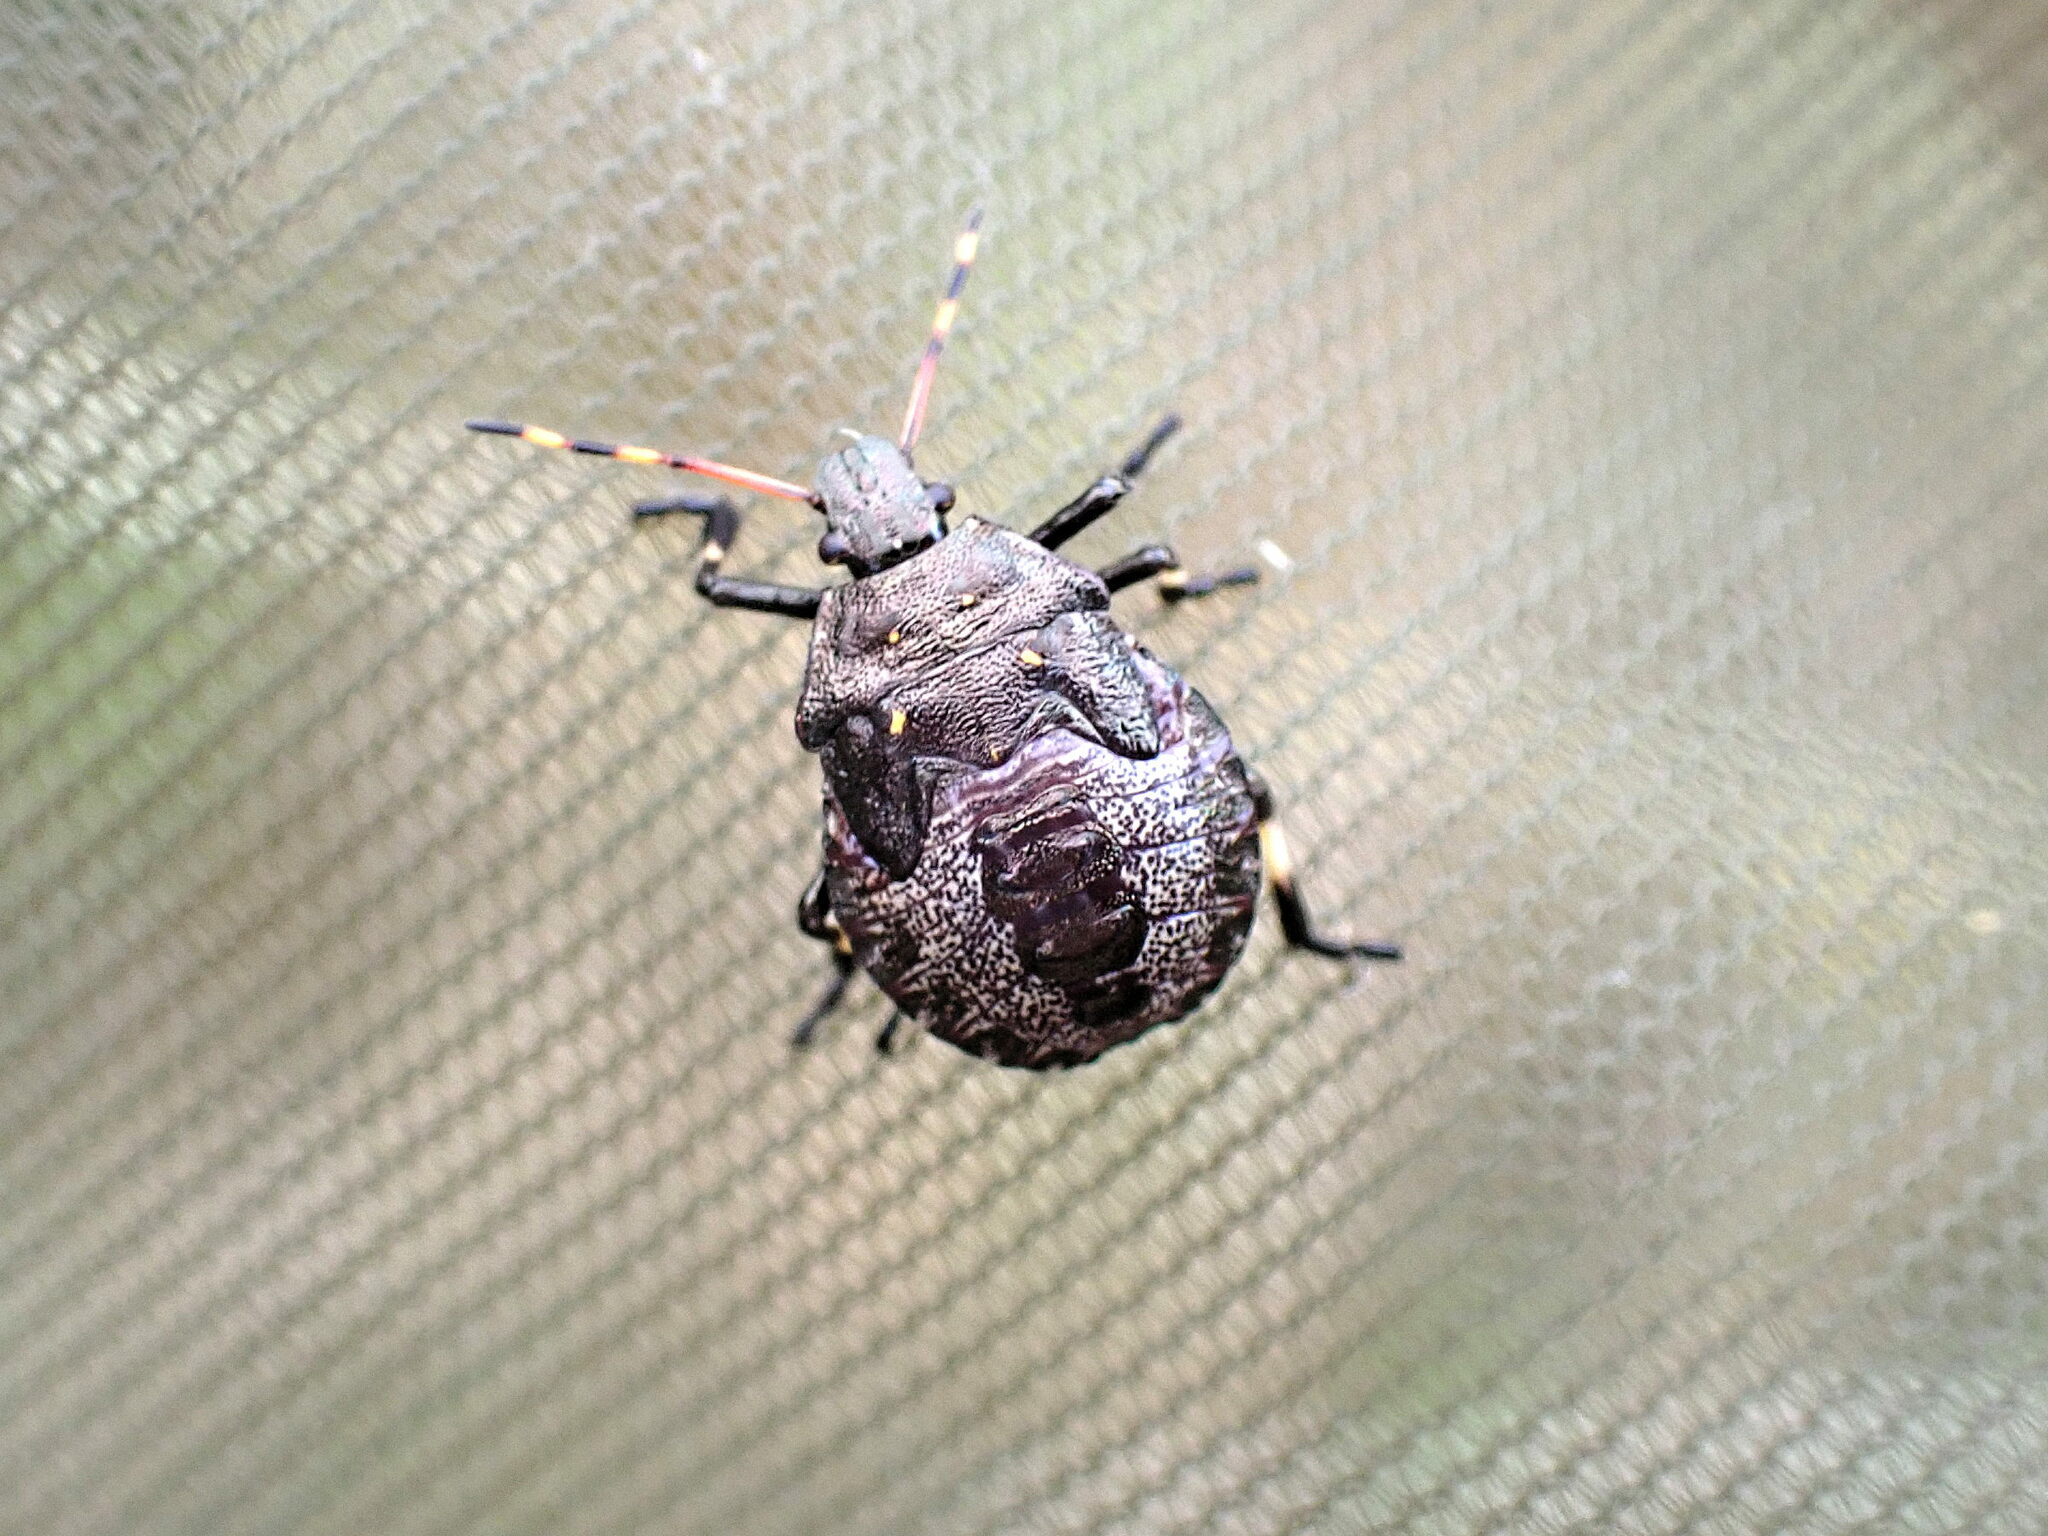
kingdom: Animalia
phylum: Arthropoda
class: Insecta
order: Hemiptera
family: Pentatomidae
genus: Picromerus
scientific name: Picromerus bidens
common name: Spiked shieldbug
